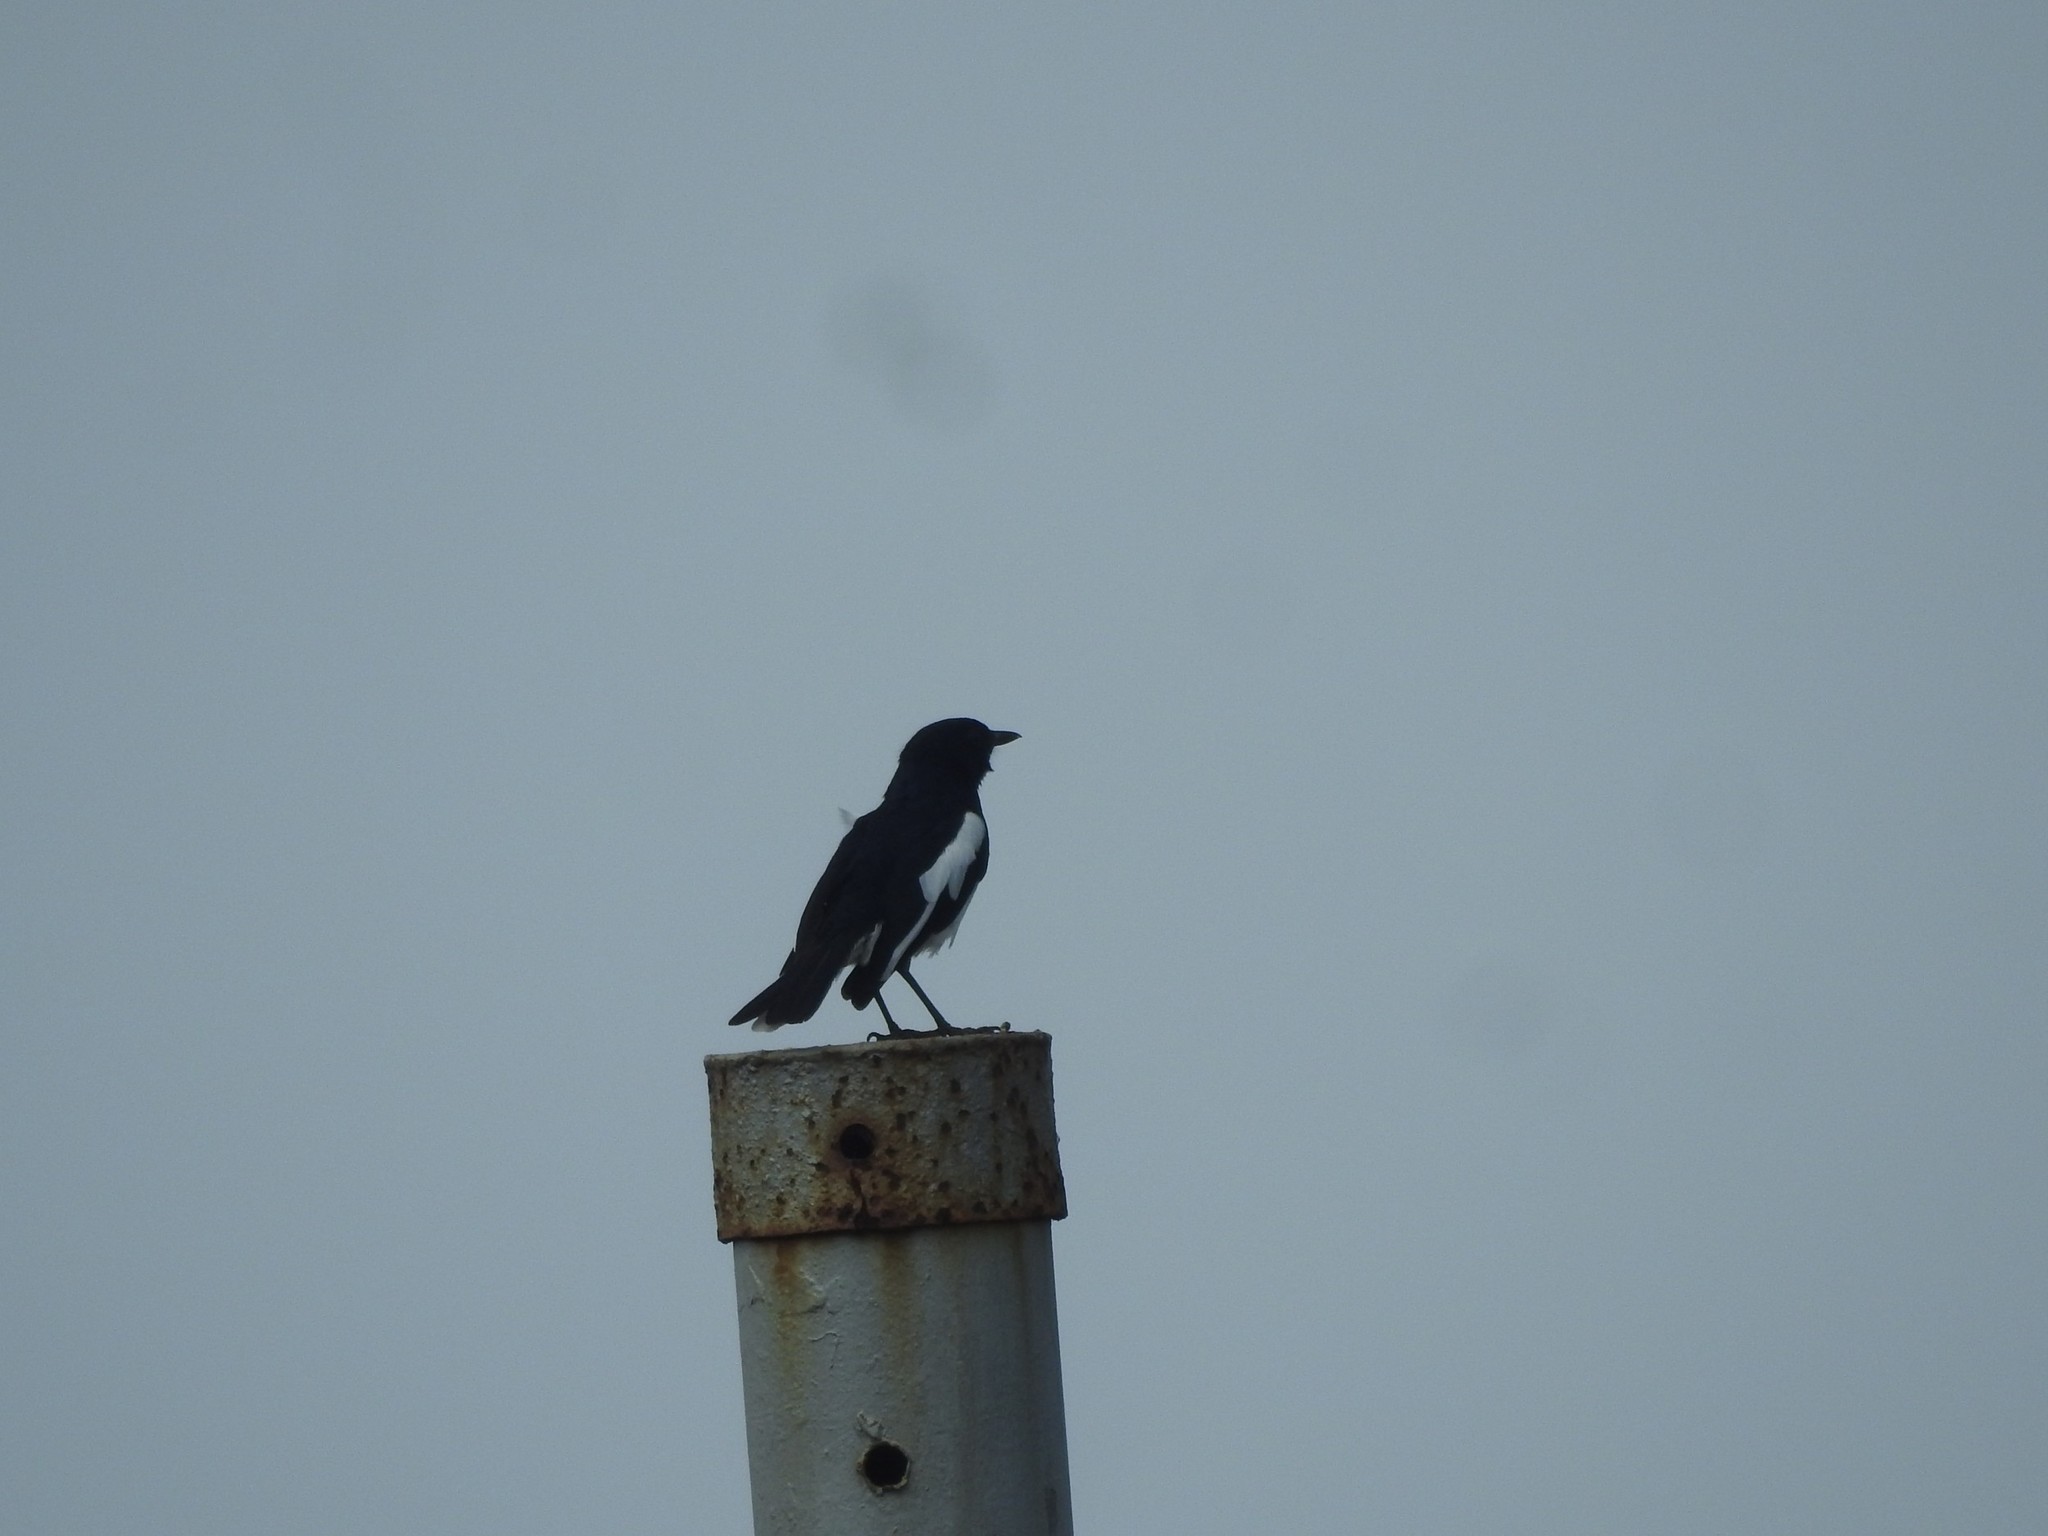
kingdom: Animalia
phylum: Chordata
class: Aves
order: Passeriformes
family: Muscicapidae
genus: Copsychus
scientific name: Copsychus saularis
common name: Oriental magpie-robin
